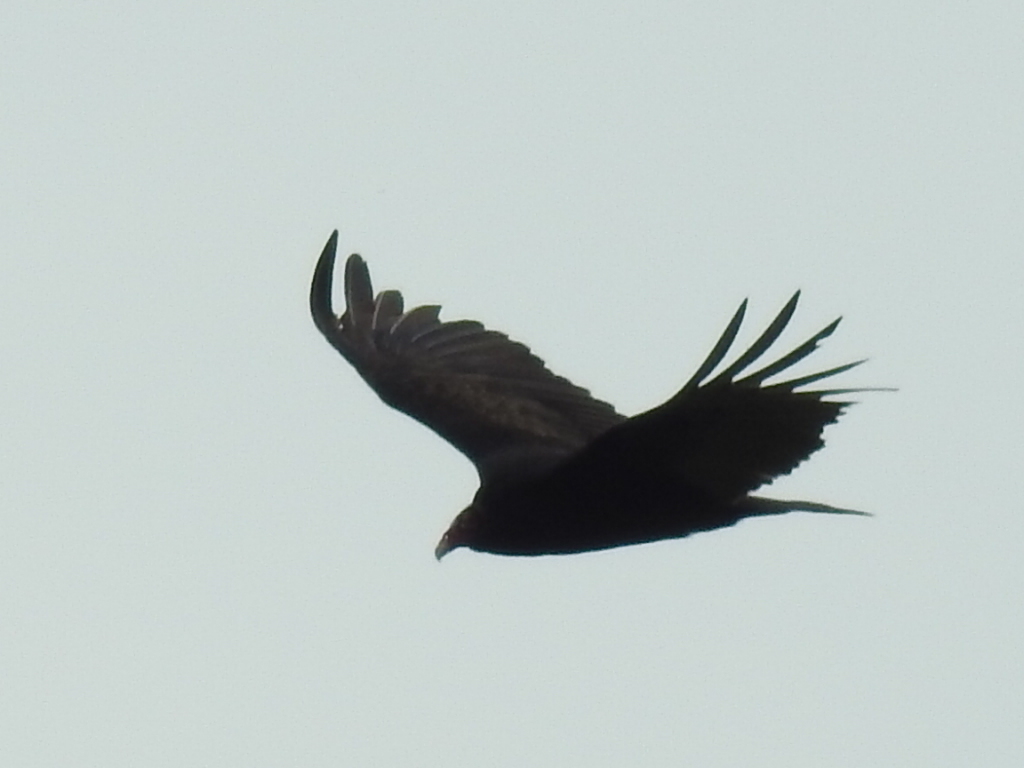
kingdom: Animalia
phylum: Chordata
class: Aves
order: Accipitriformes
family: Cathartidae
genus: Cathartes
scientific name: Cathartes aura
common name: Turkey vulture
